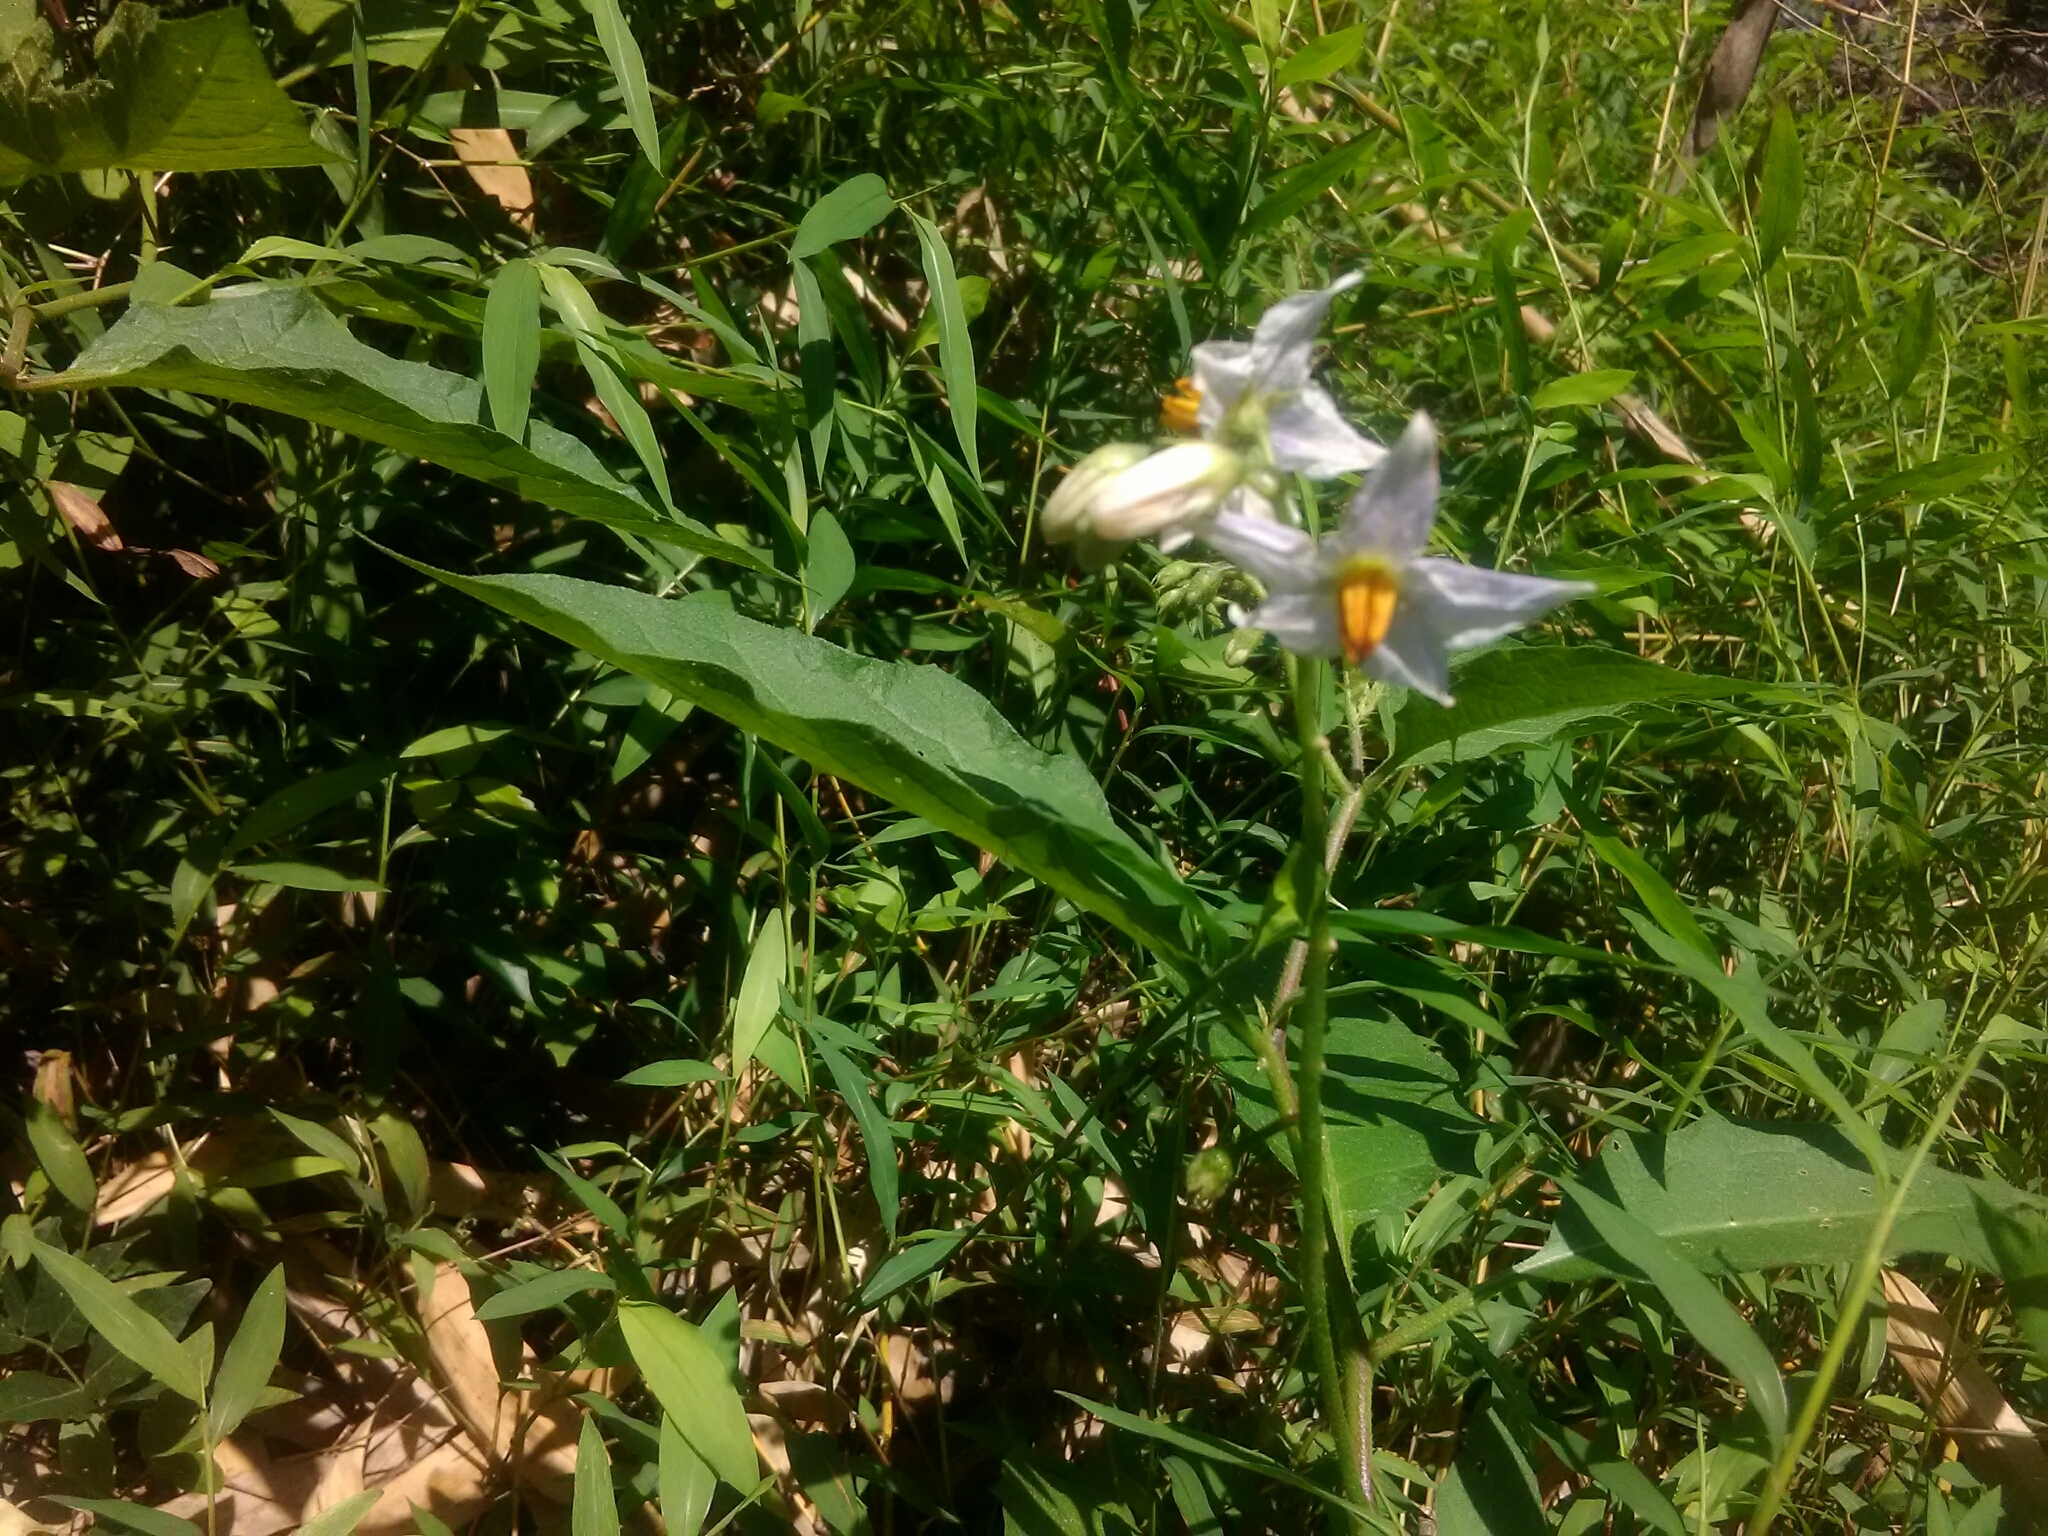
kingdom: Plantae
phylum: Tracheophyta
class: Magnoliopsida
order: Solanales
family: Solanaceae
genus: Solanum
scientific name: Solanum carolinense
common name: Horse-nettle
